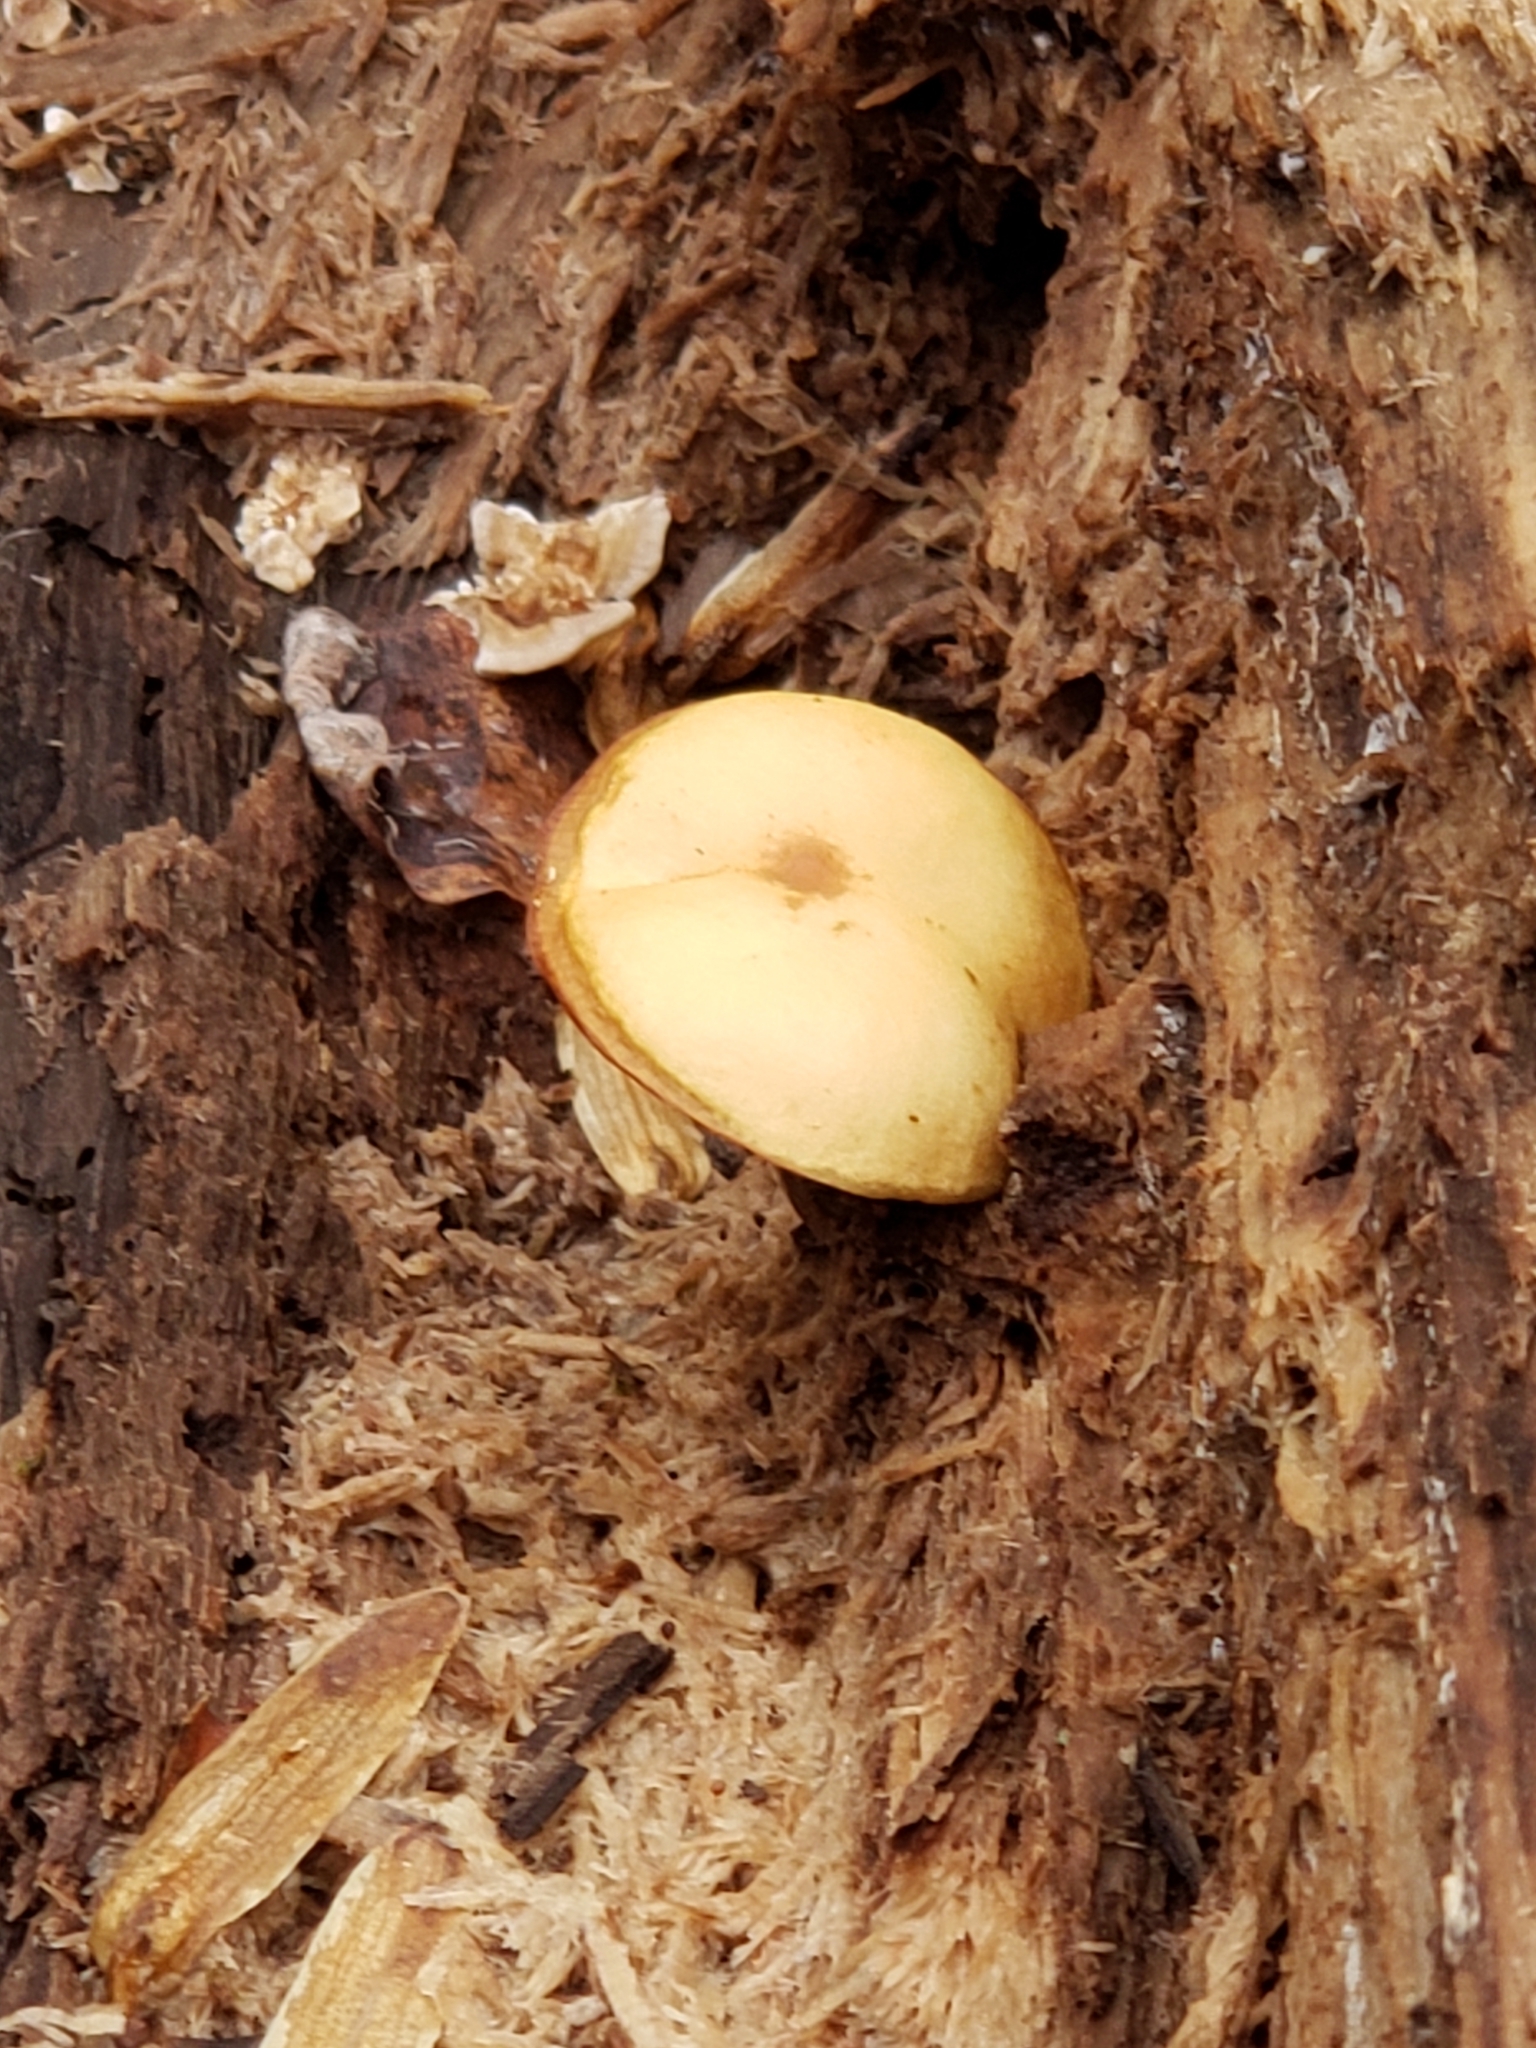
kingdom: Fungi
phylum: Basidiomycota
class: Agaricomycetes
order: Agaricales
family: Hymenogastraceae
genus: Galerina
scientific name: Galerina marginata
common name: Funeral bell
